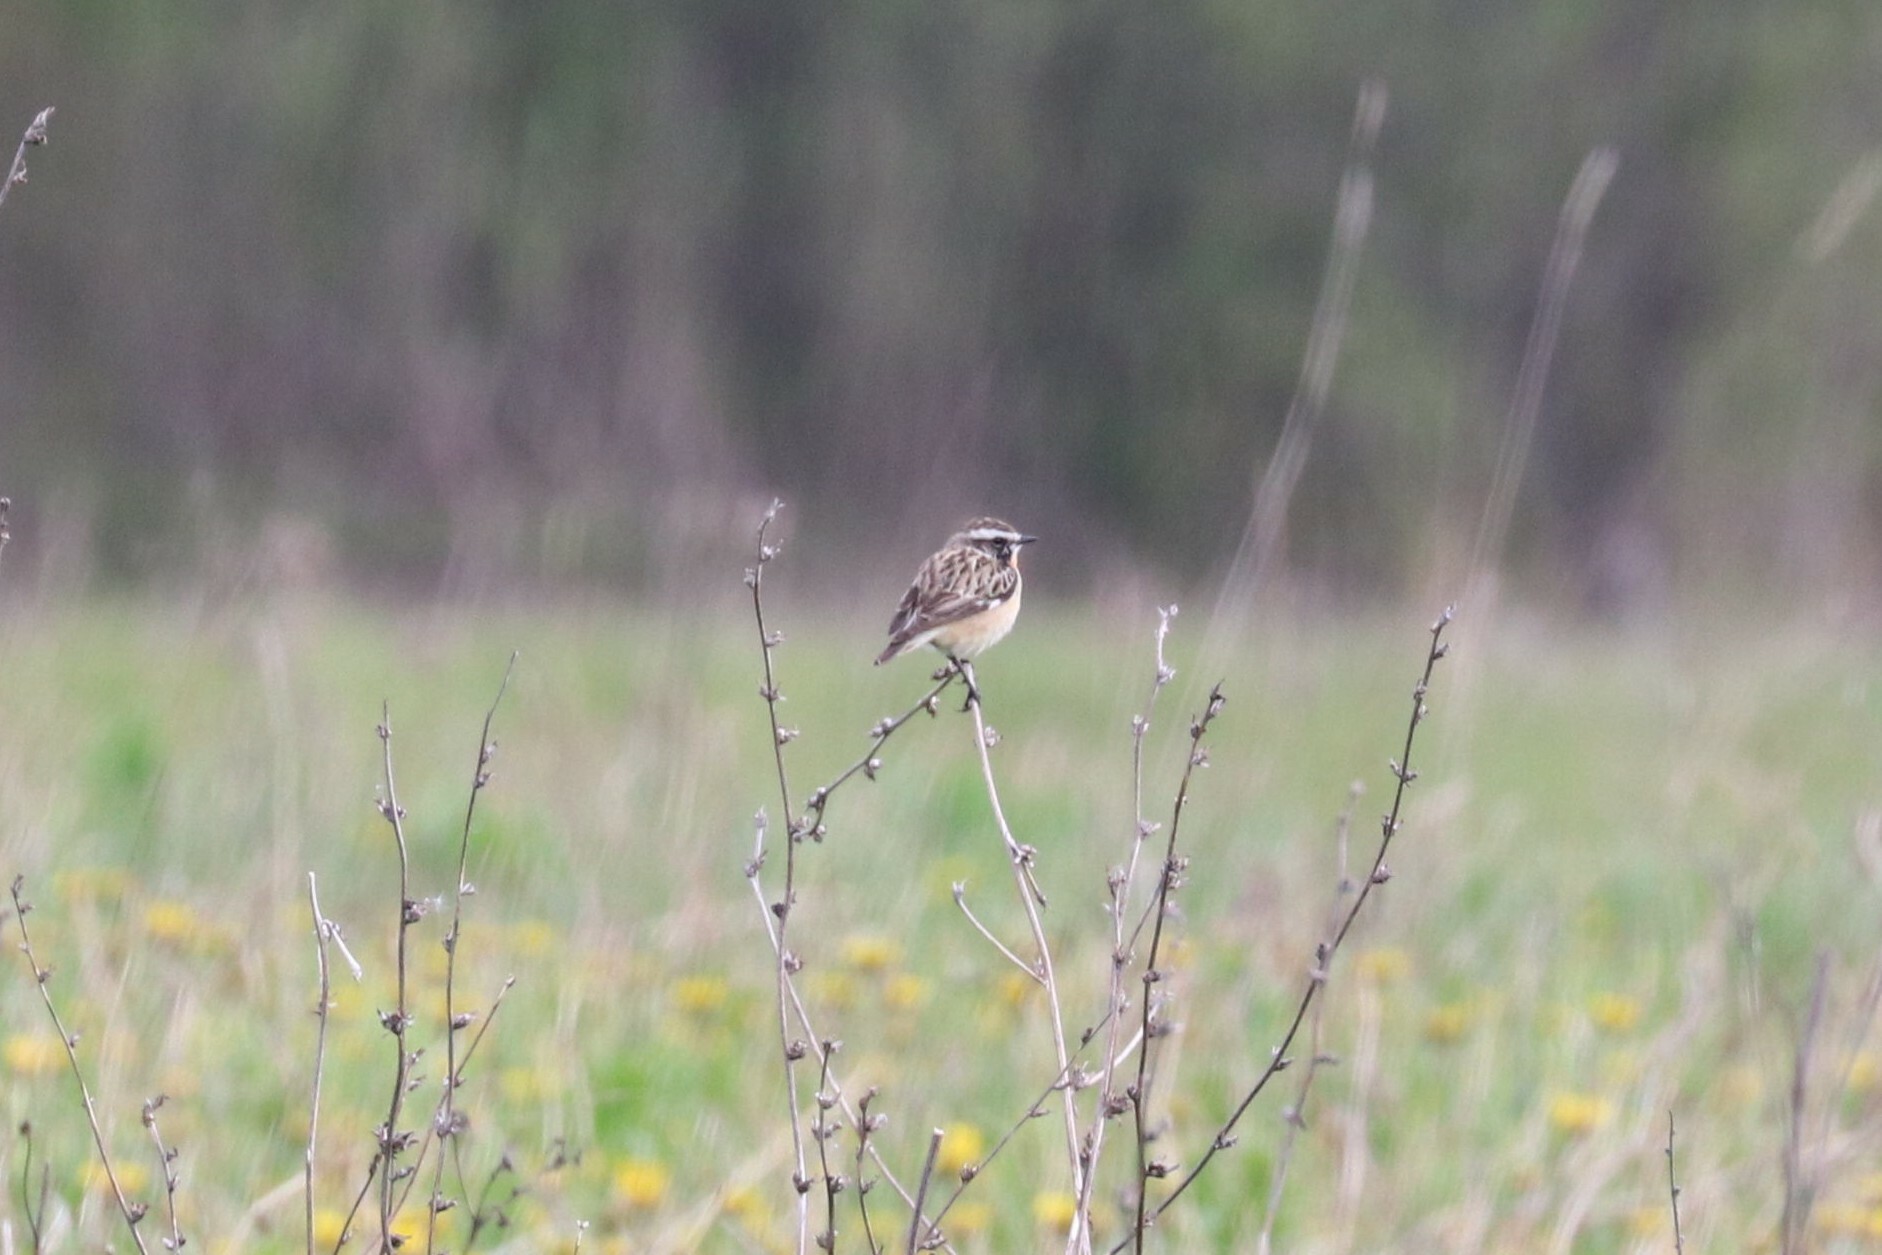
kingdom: Animalia
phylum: Chordata
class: Aves
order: Passeriformes
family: Muscicapidae
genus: Saxicola
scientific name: Saxicola rubetra
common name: Whinchat
